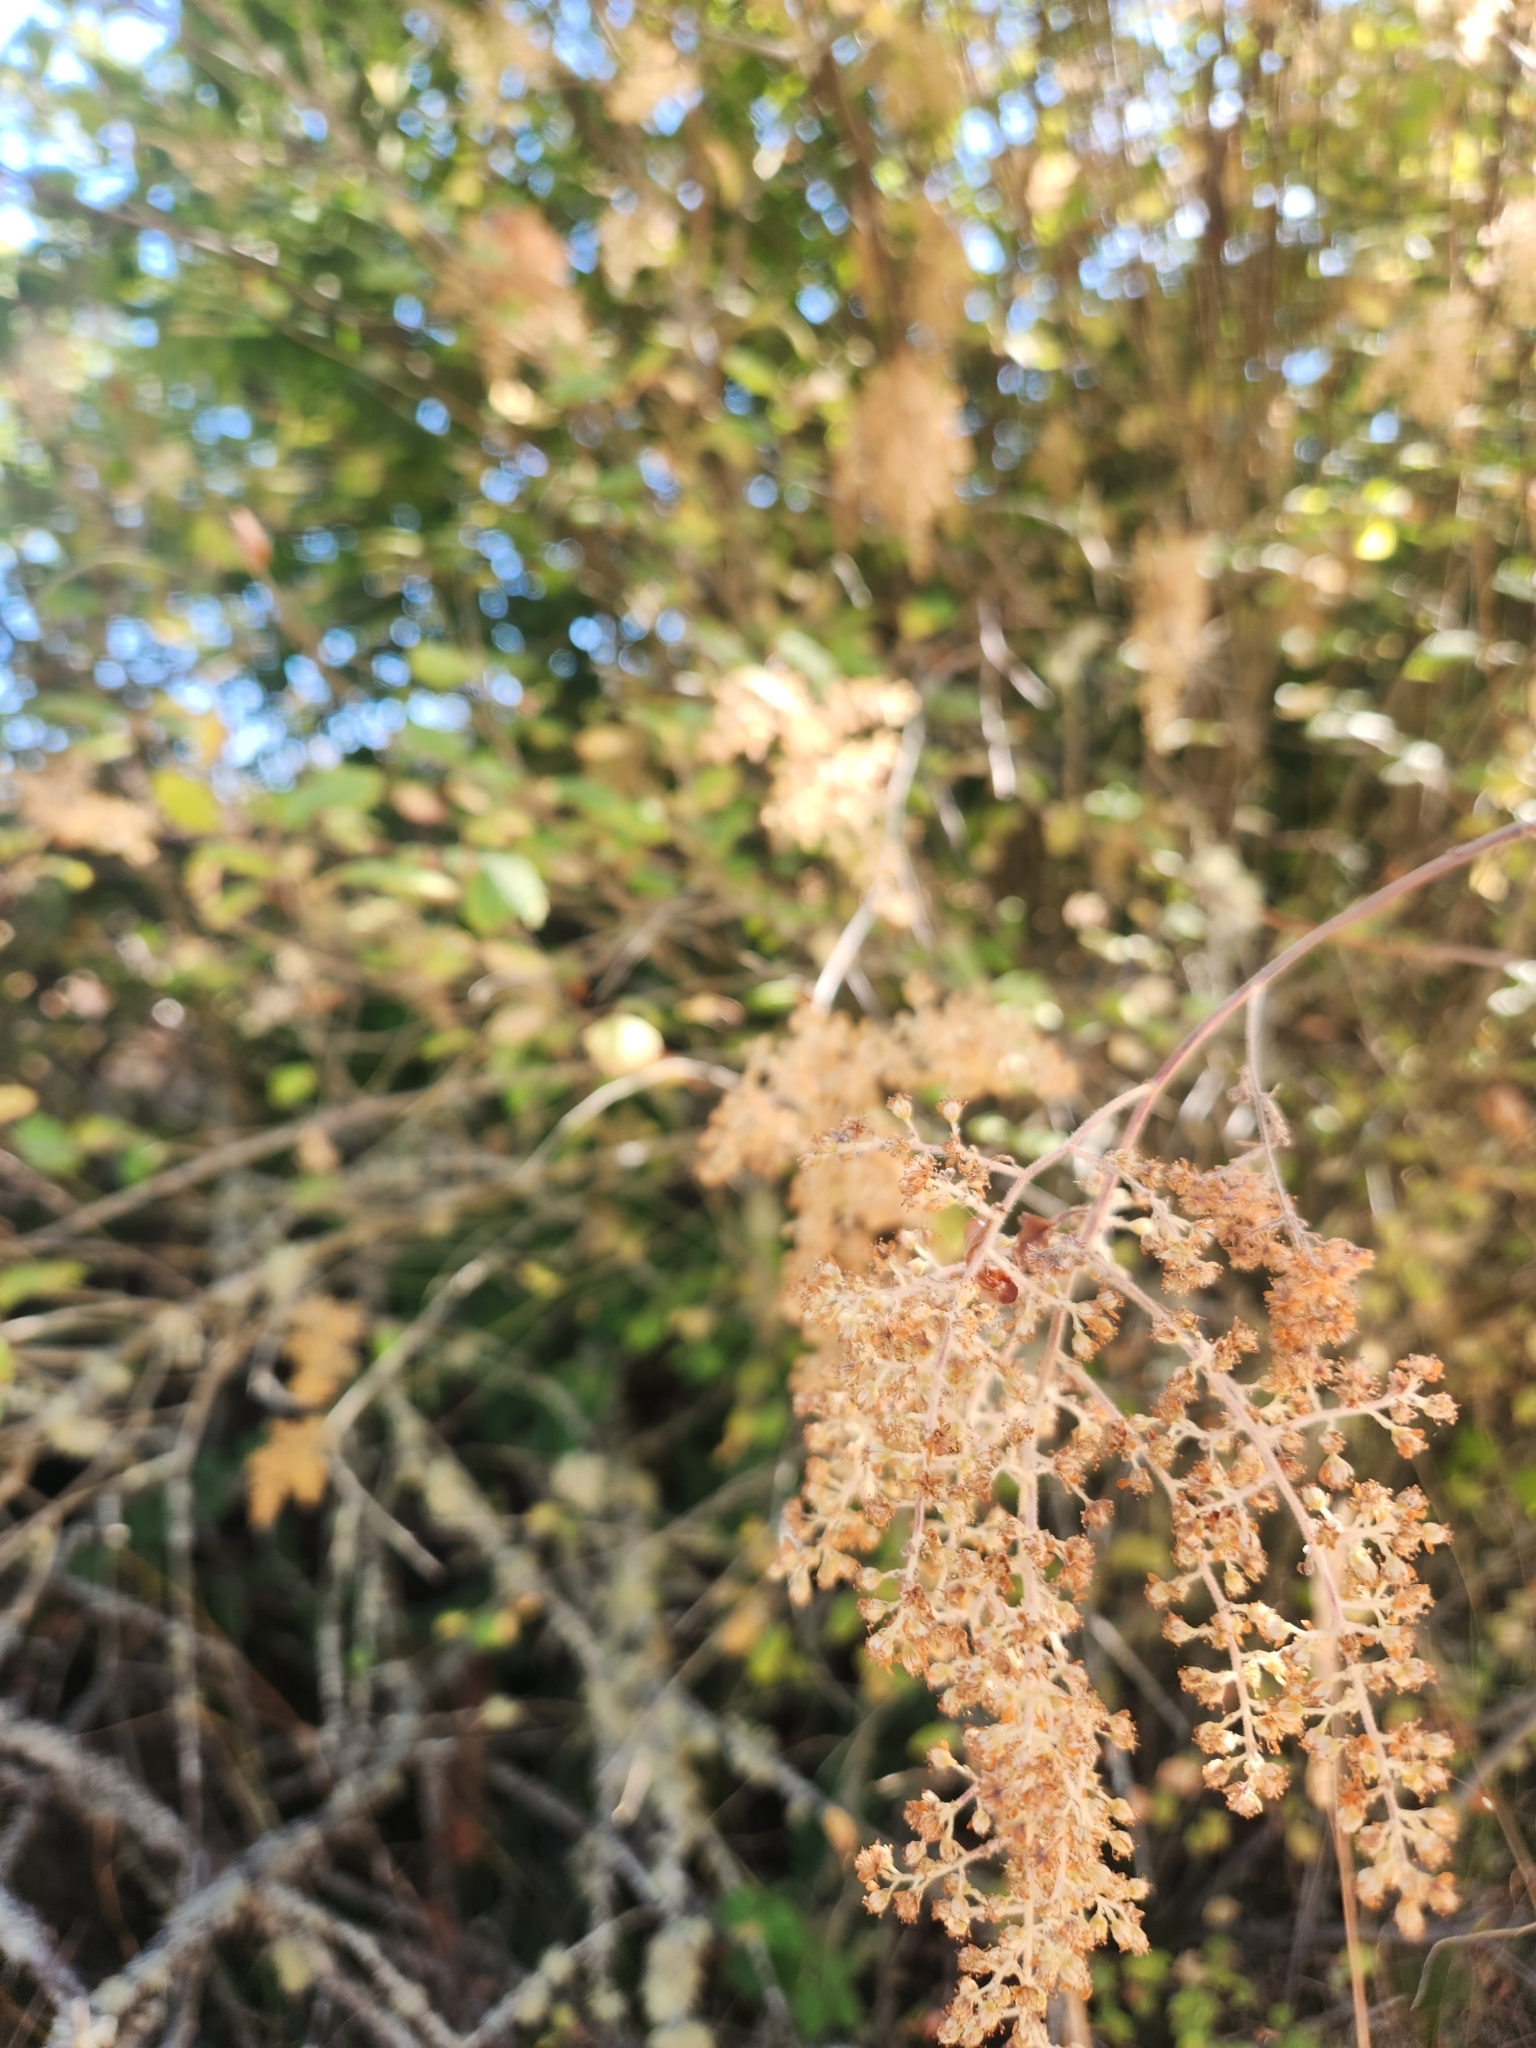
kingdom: Plantae
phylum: Tracheophyta
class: Magnoliopsida
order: Rosales
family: Rosaceae
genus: Holodiscus
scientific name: Holodiscus discolor
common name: Oceanspray
